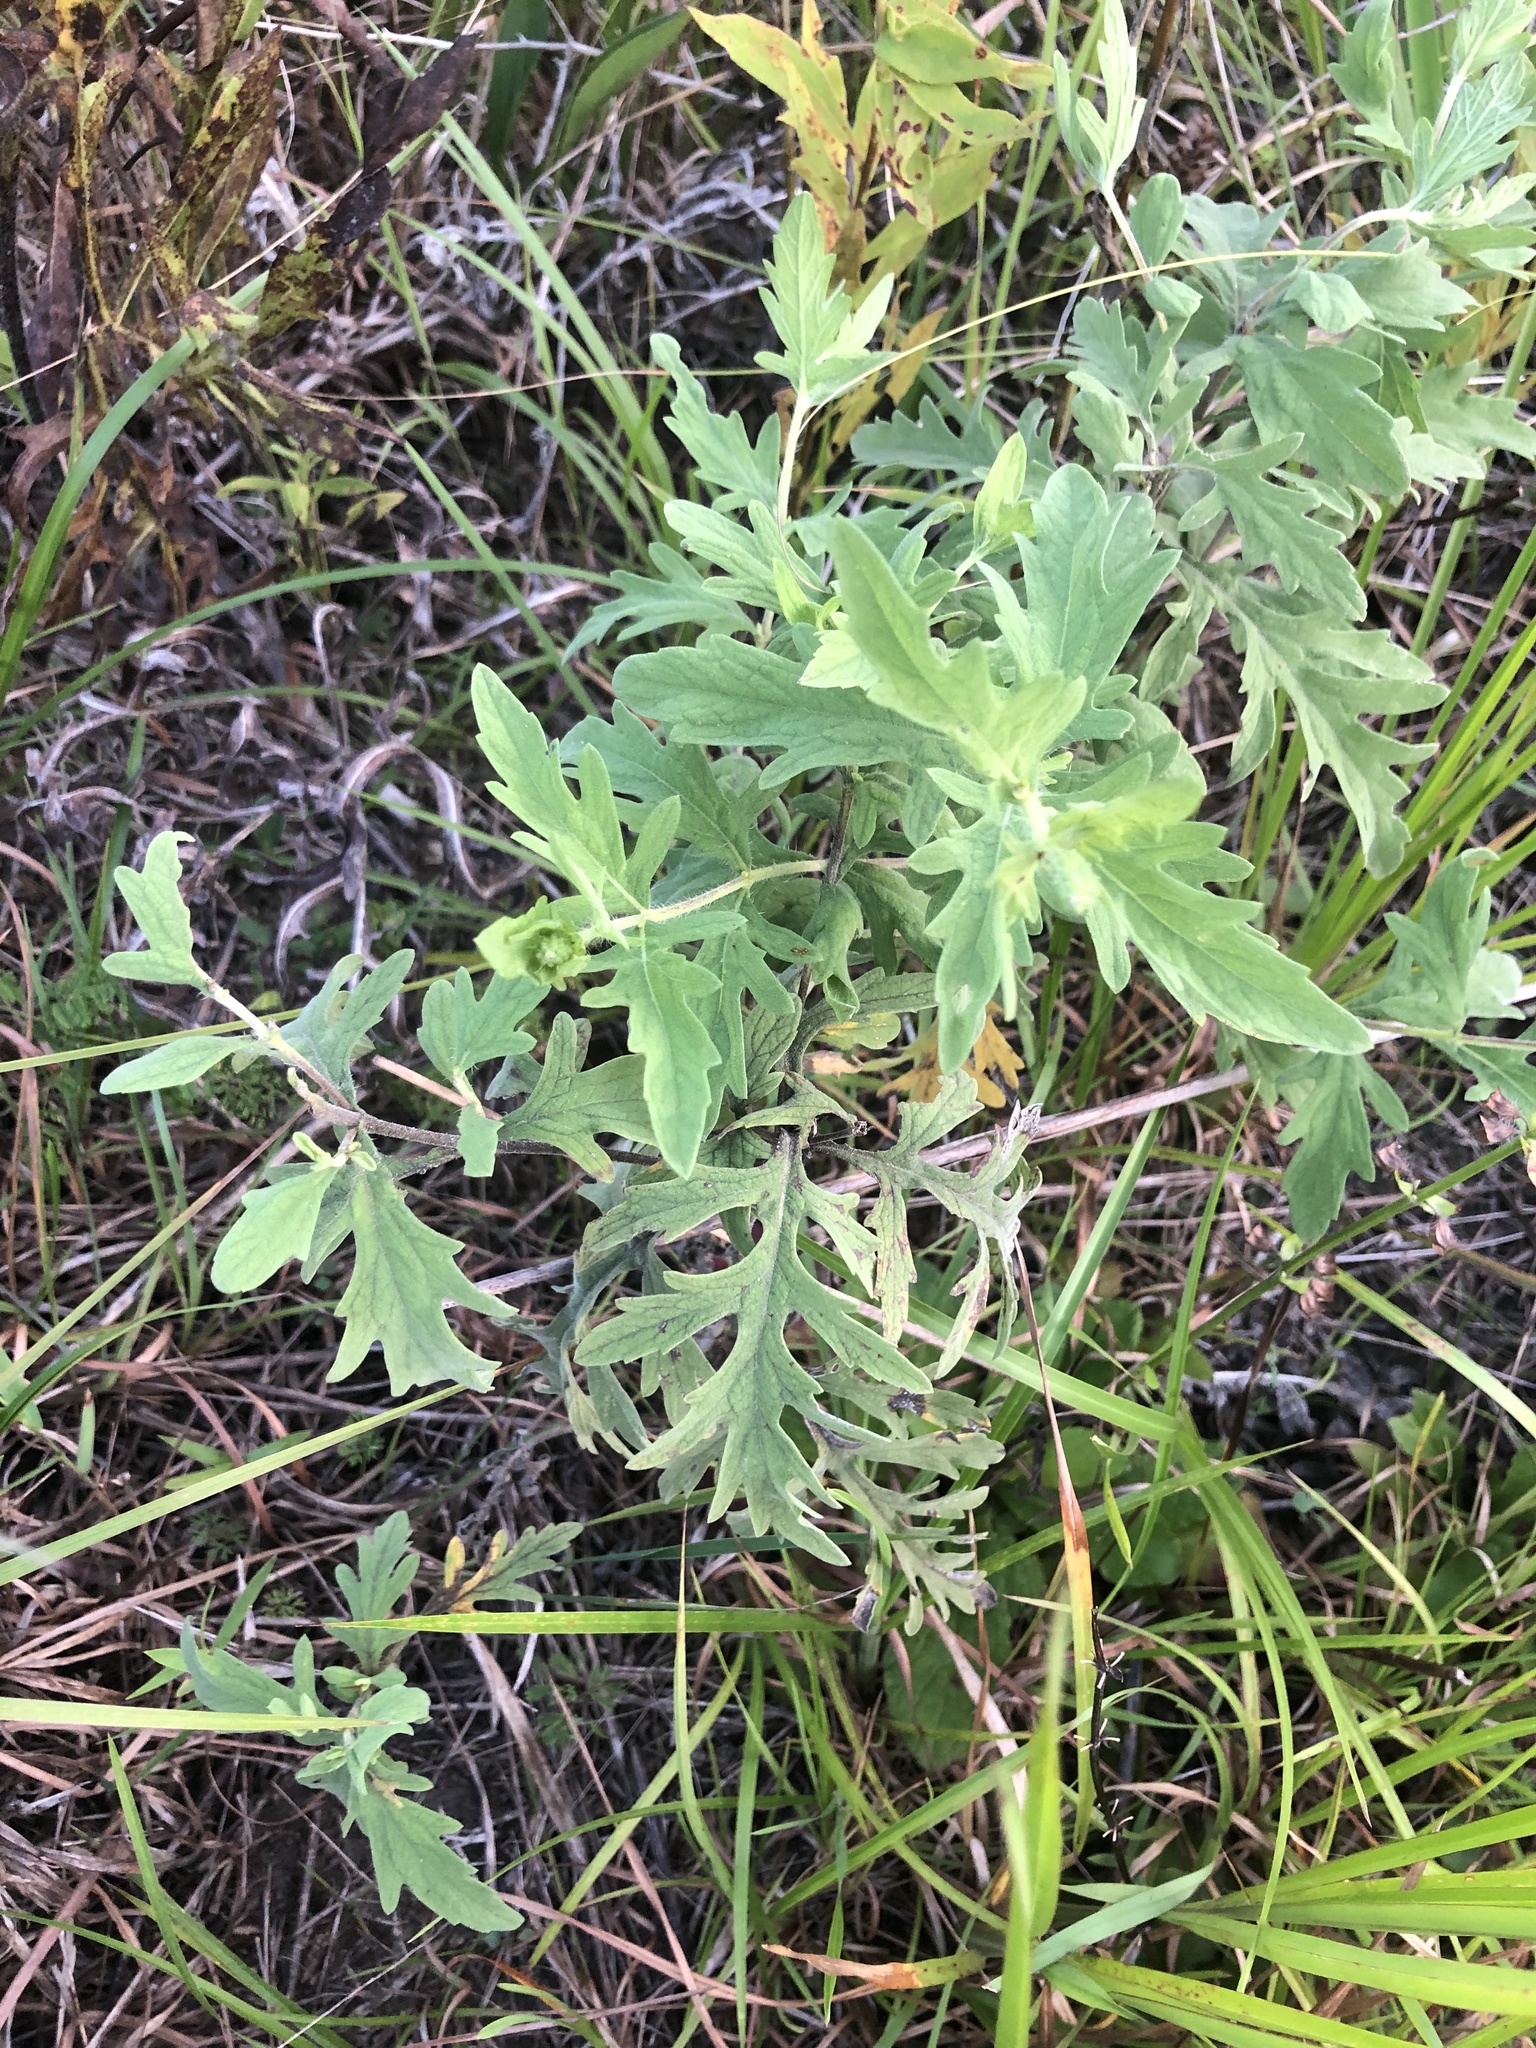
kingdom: Plantae
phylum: Tracheophyta
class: Magnoliopsida
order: Asterales
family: Asteraceae
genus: Ambrosia
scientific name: Ambrosia psilostachya
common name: Perennial ragweed
